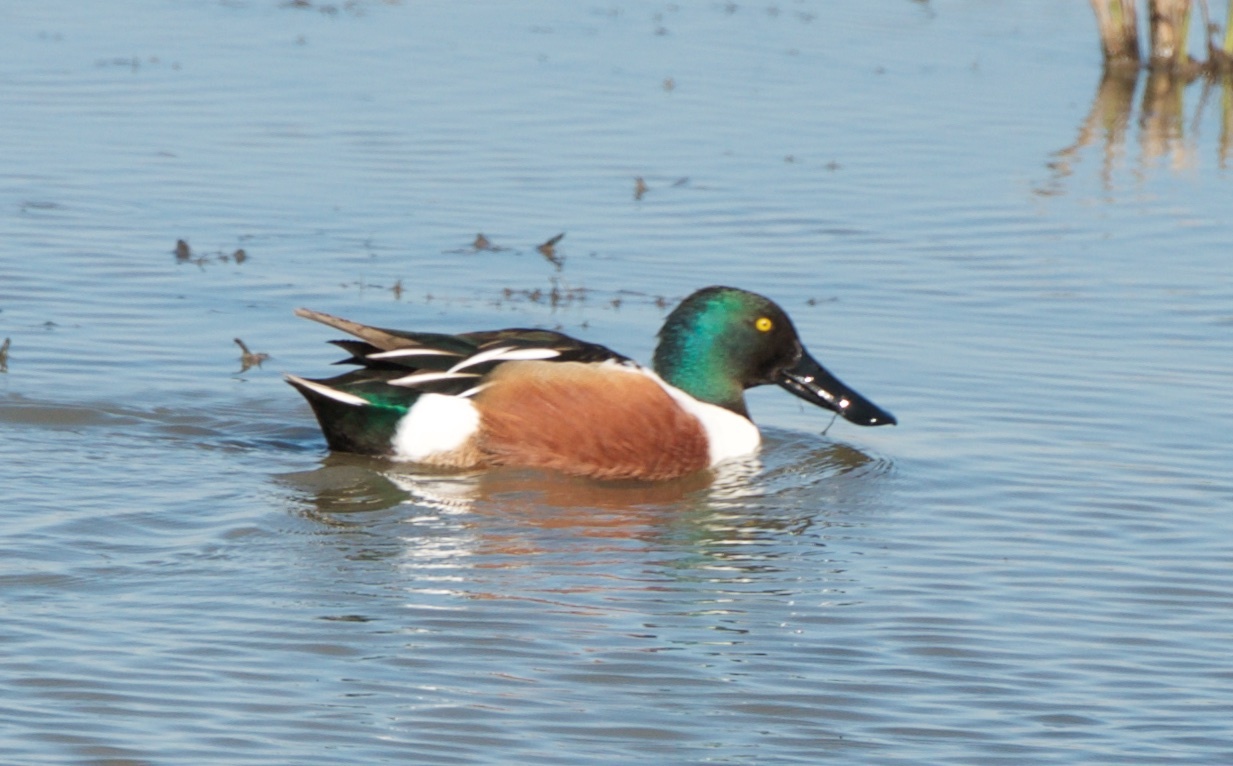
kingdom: Animalia
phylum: Chordata
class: Aves
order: Anseriformes
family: Anatidae
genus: Spatula
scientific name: Spatula clypeata
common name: Northern shoveler
